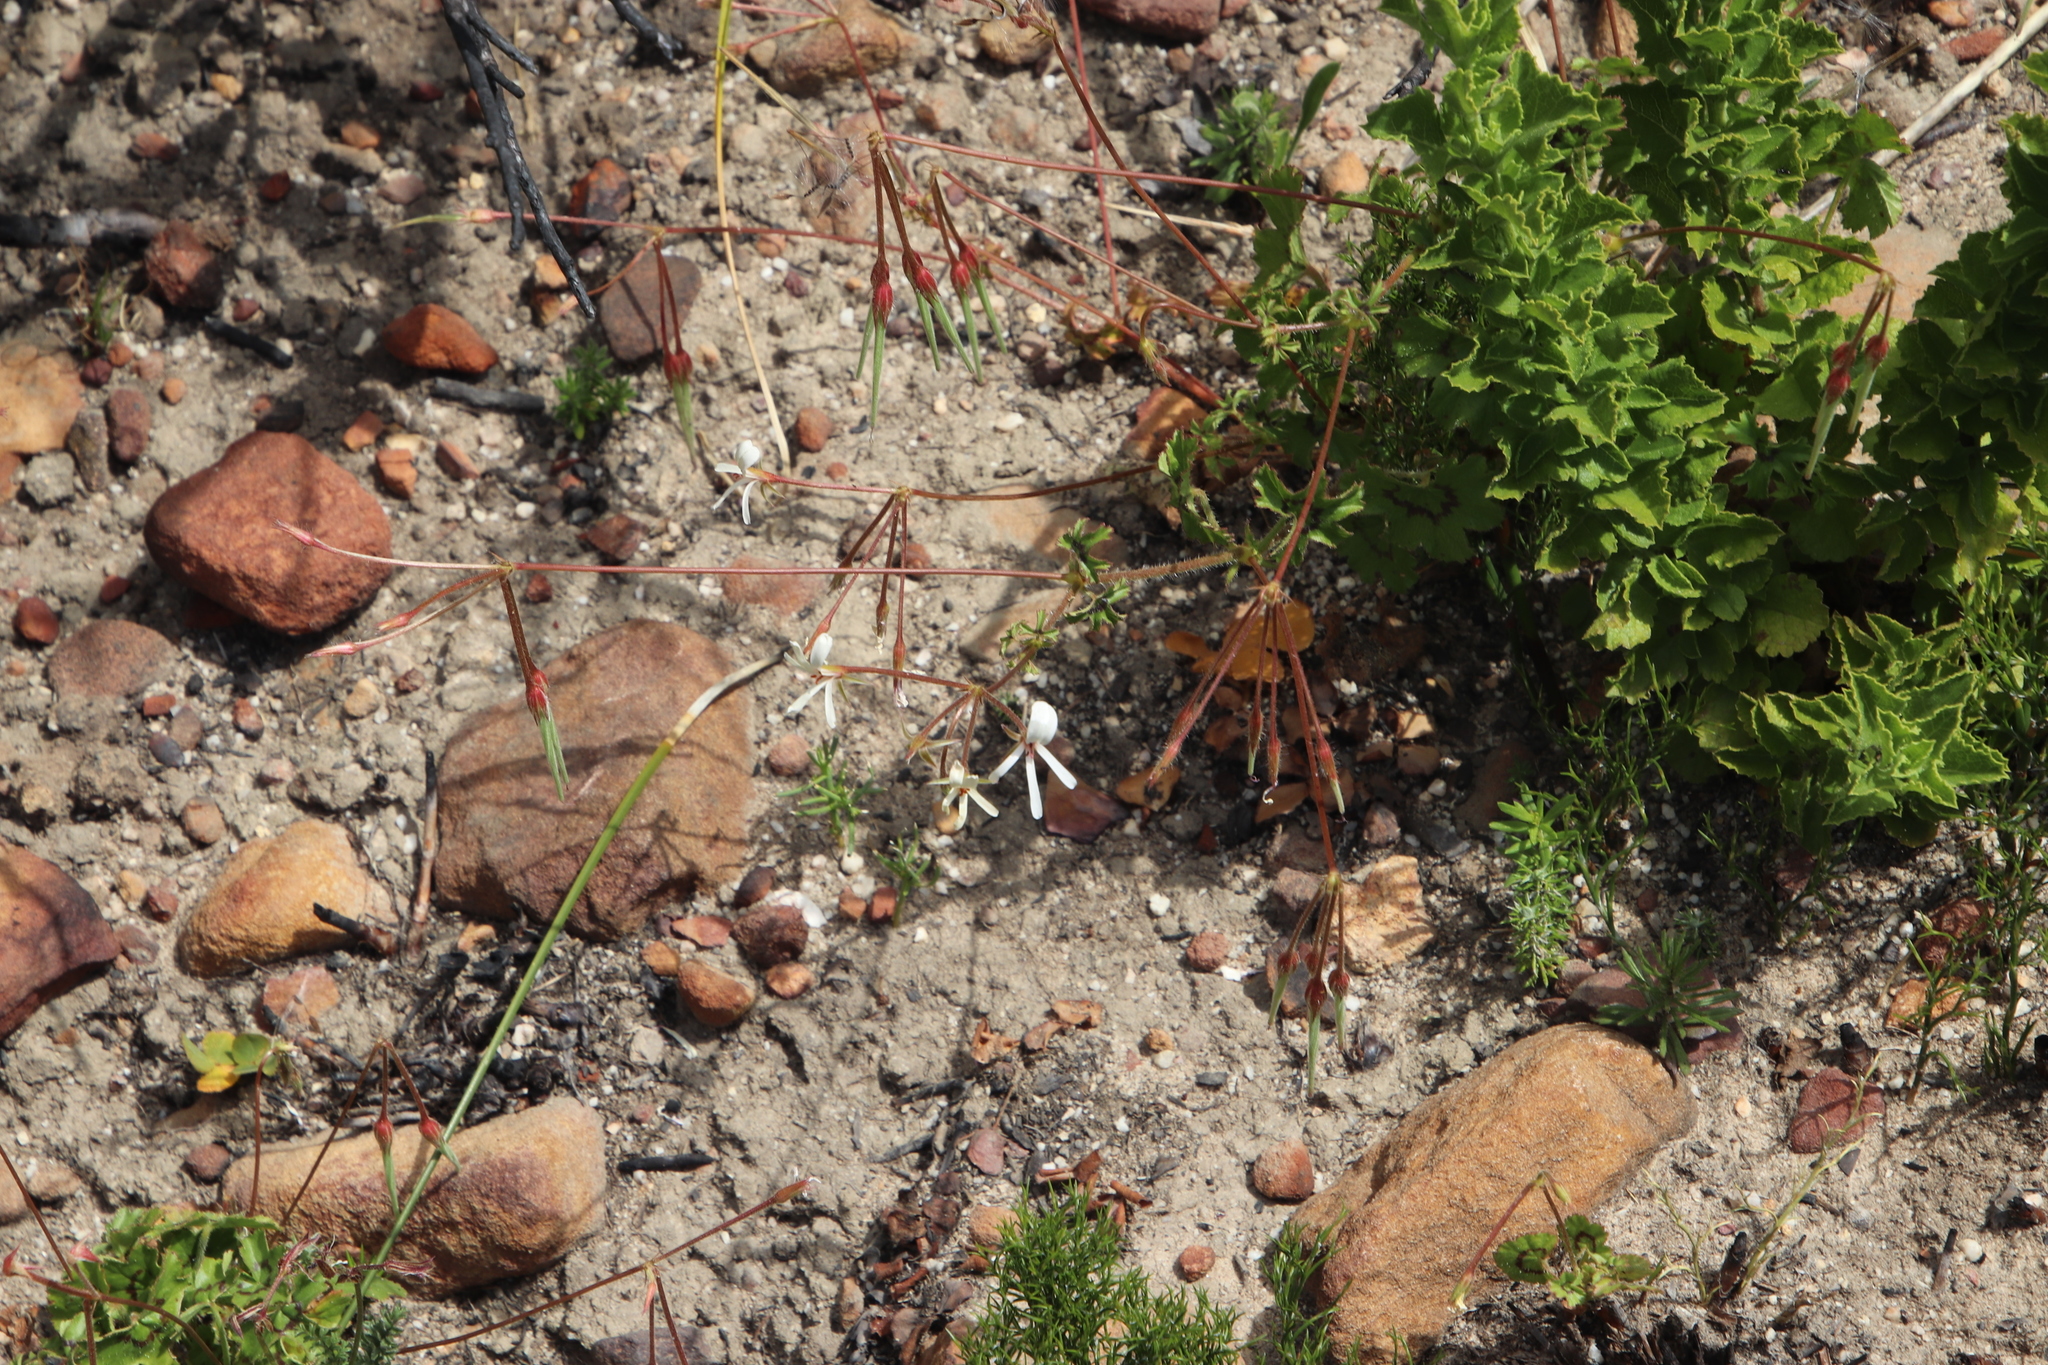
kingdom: Plantae
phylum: Tracheophyta
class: Magnoliopsida
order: Geraniales
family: Geraniaceae
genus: Pelargonium
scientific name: Pelargonium elongatum
